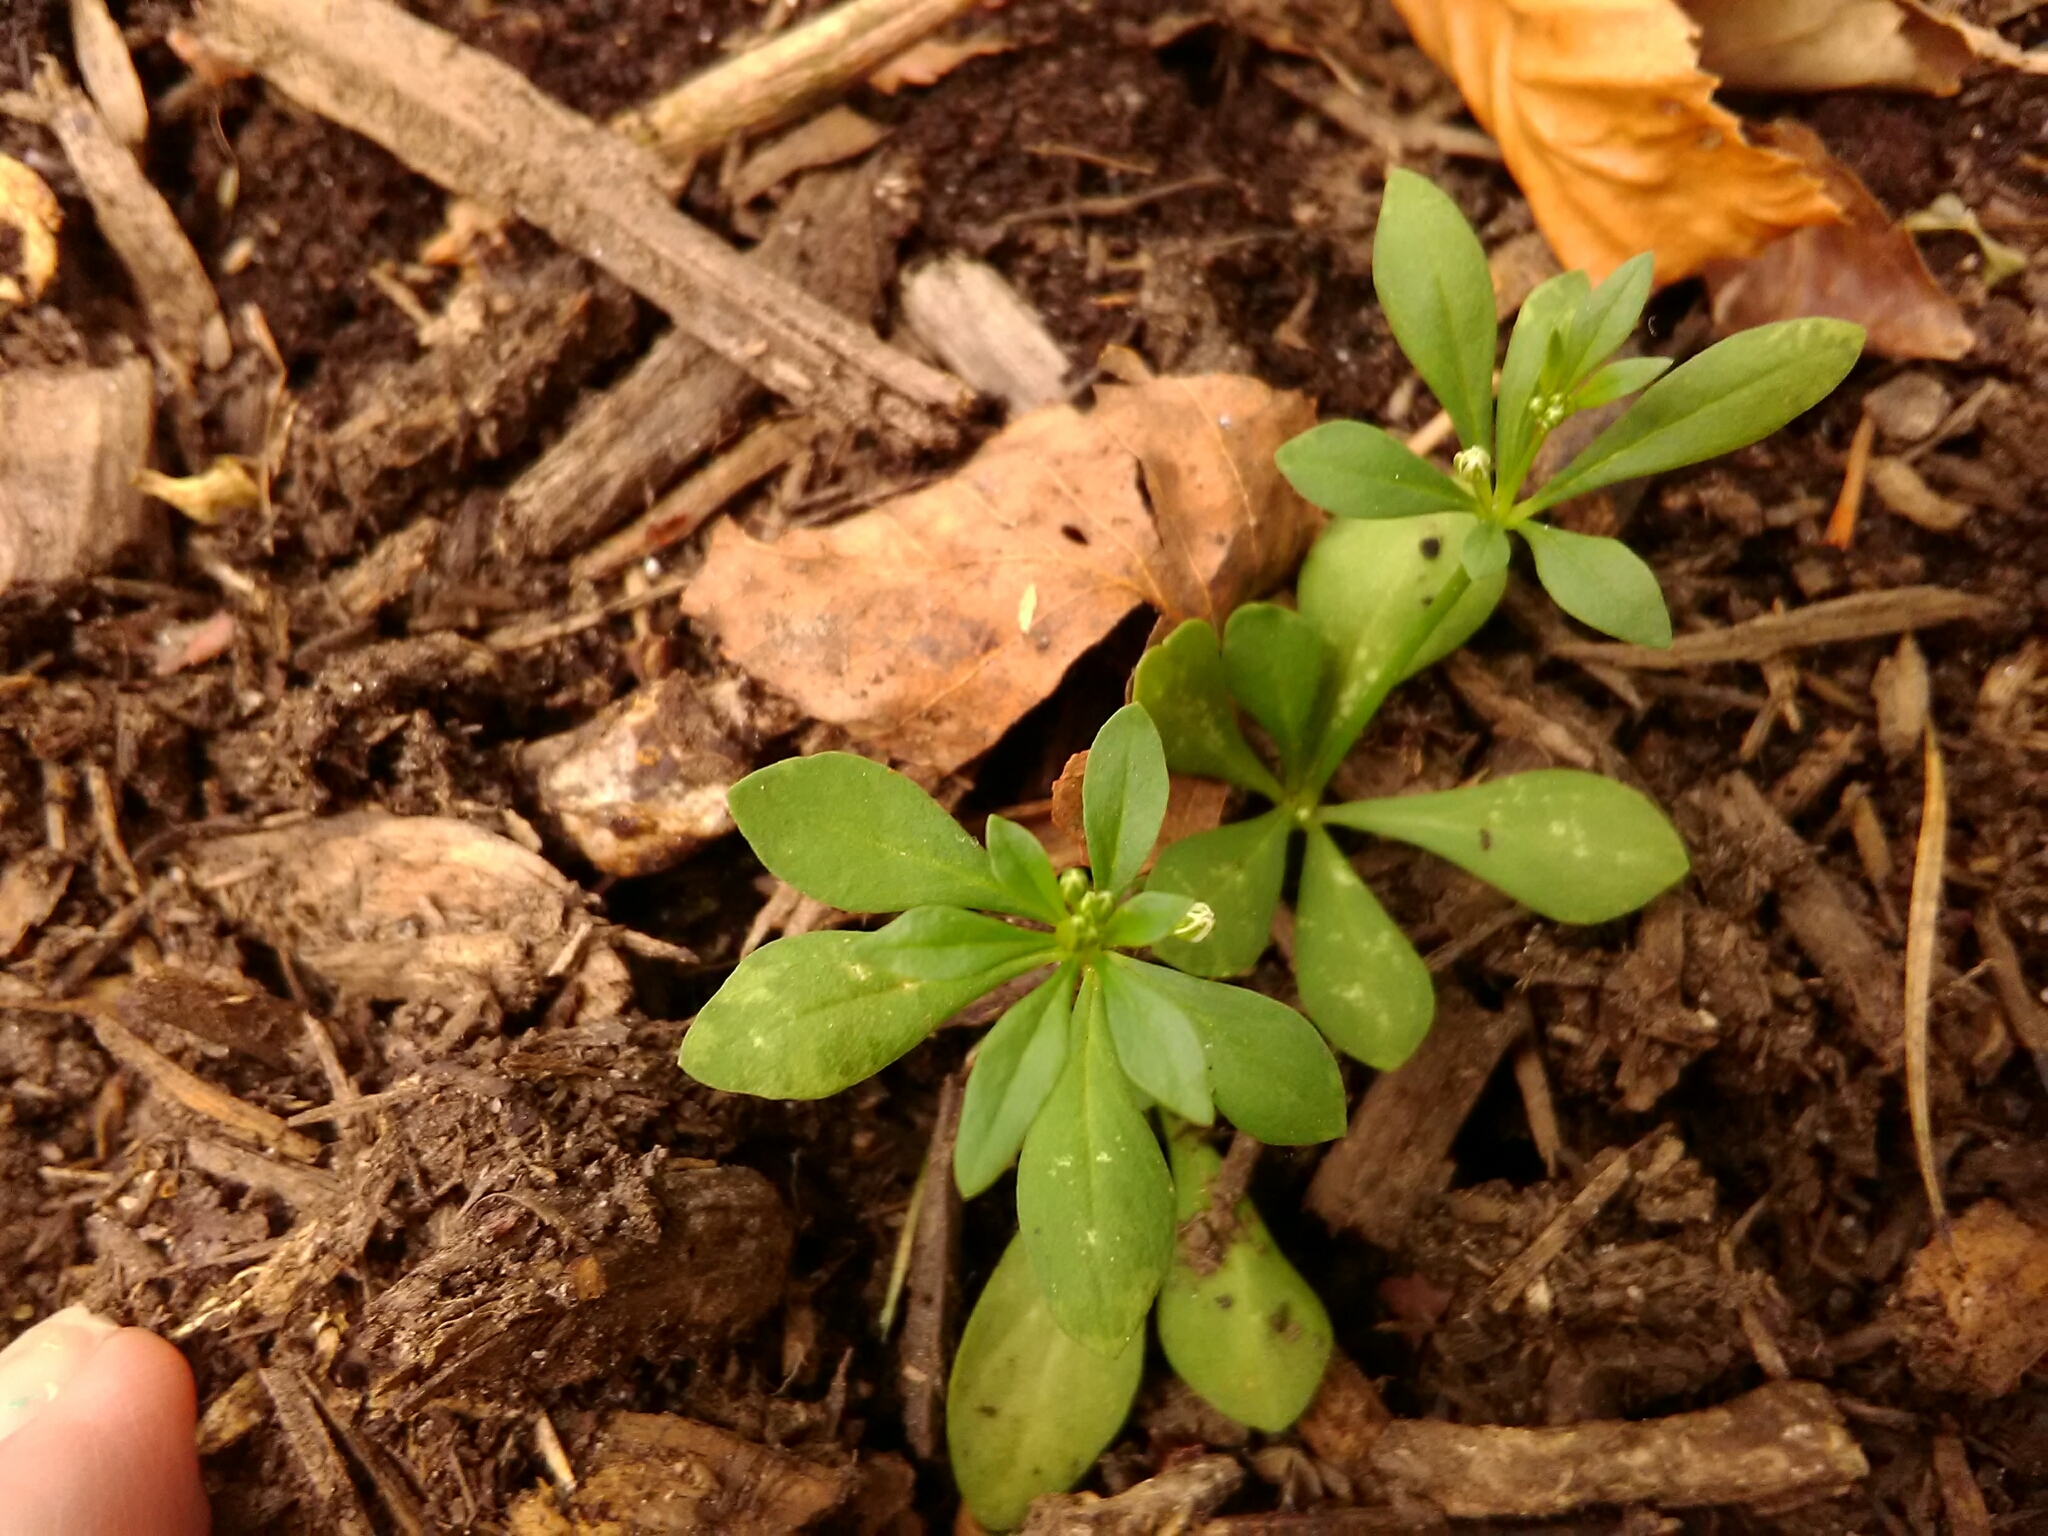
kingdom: Plantae
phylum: Tracheophyta
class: Magnoliopsida
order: Caryophyllales
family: Molluginaceae
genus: Mollugo
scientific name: Mollugo verticillata
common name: Green carpetweed
